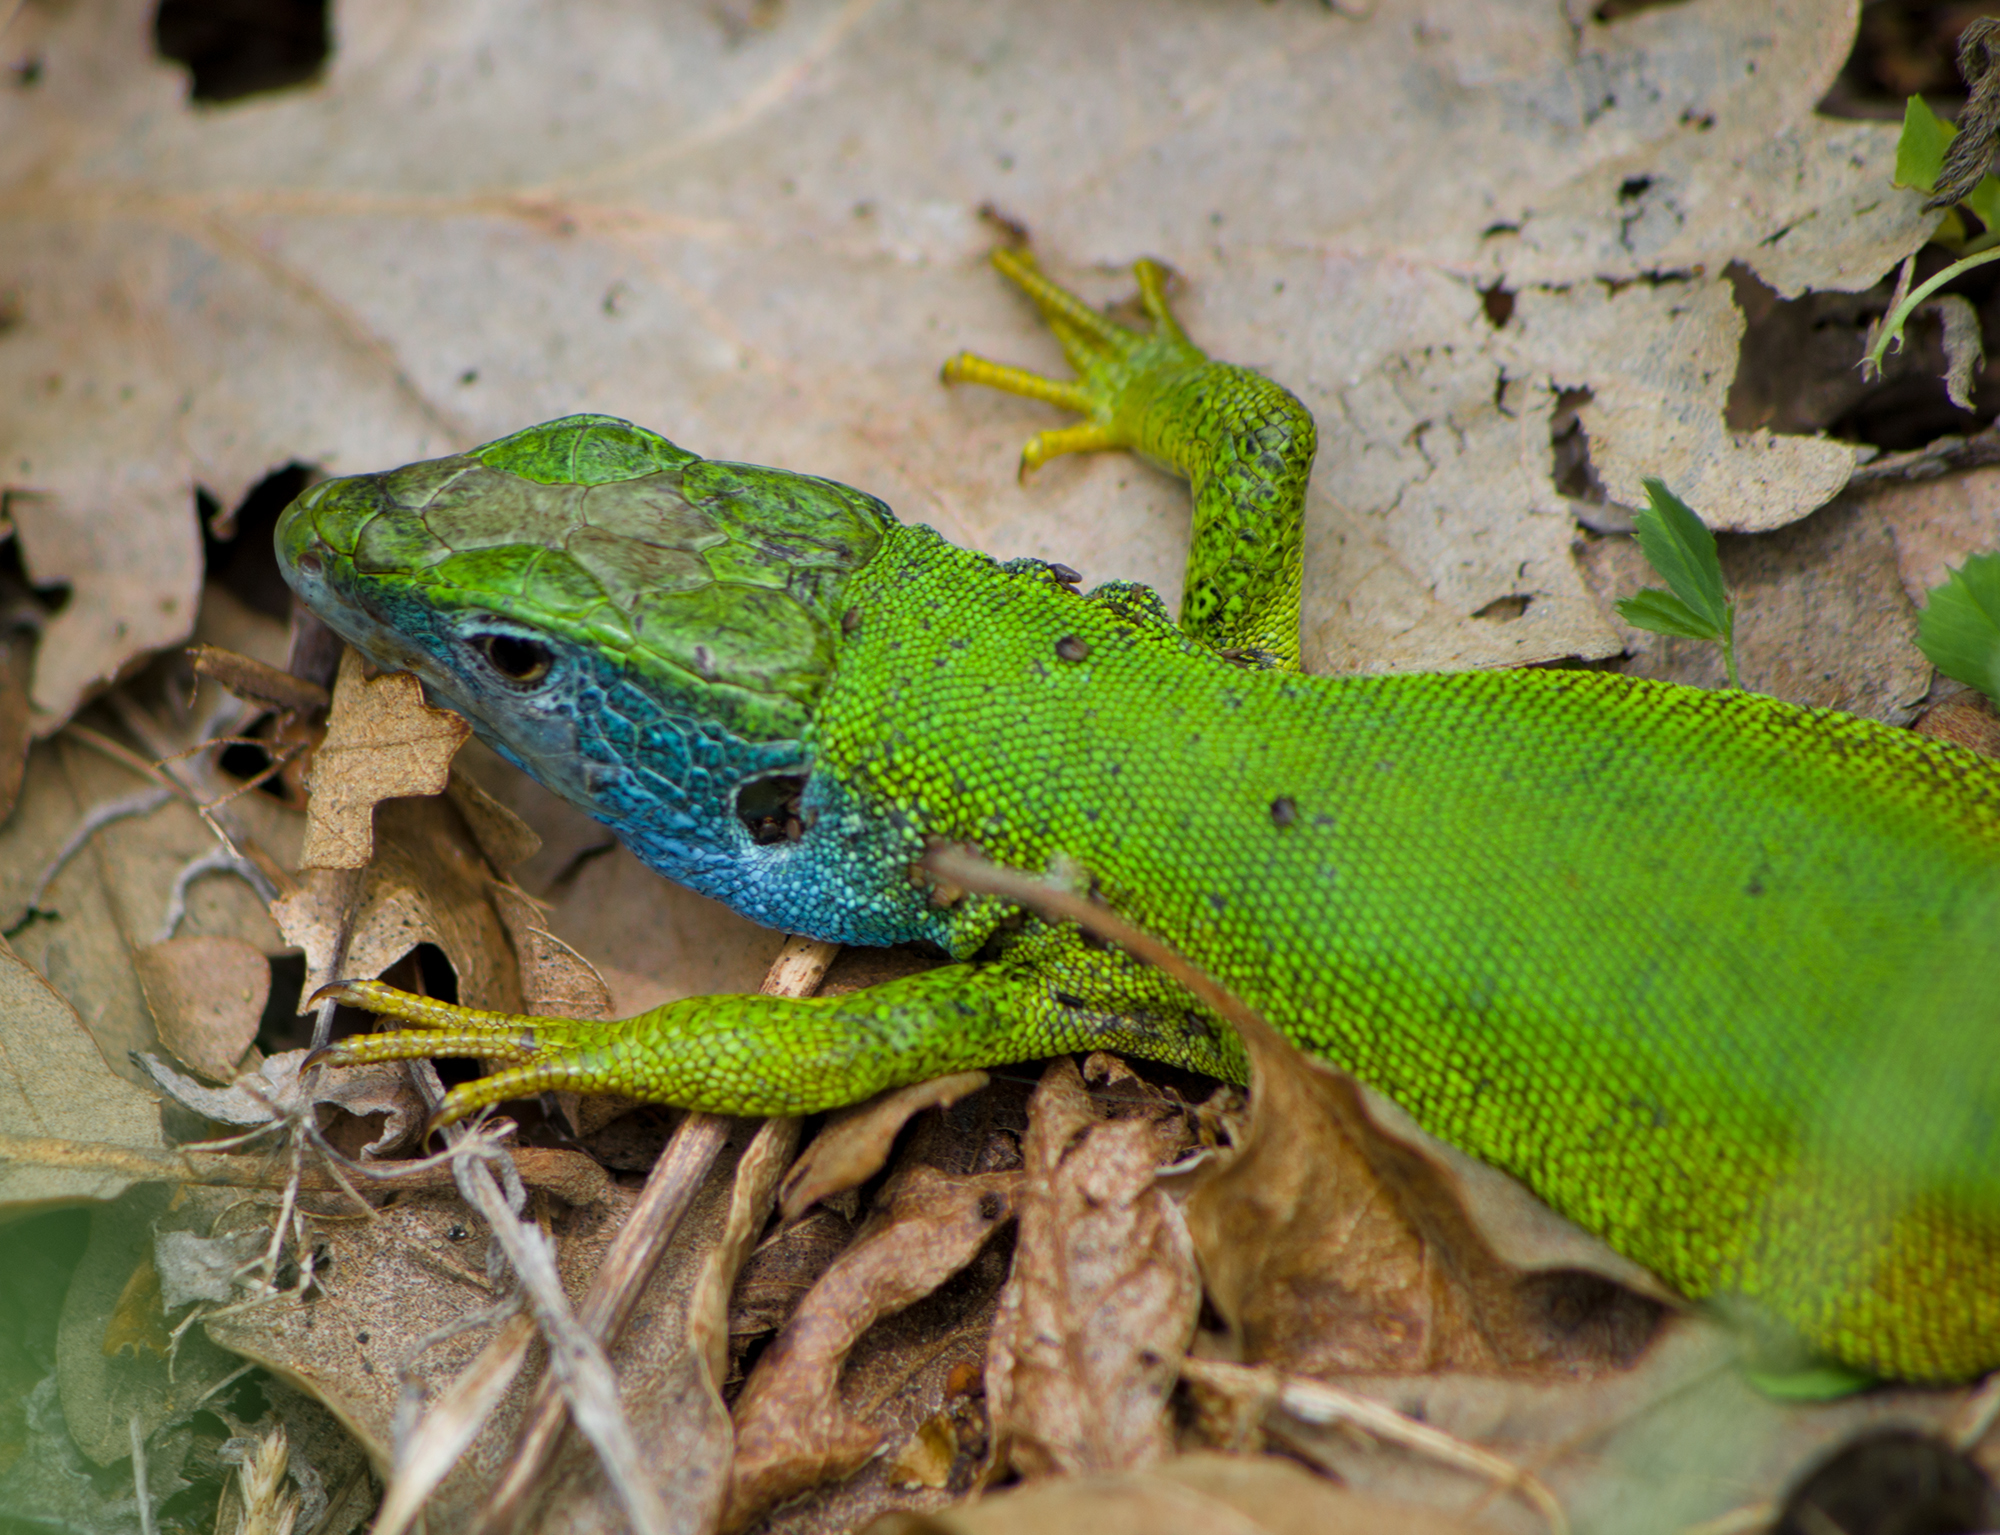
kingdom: Animalia
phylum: Chordata
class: Squamata
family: Lacertidae
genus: Lacerta
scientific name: Lacerta viridis
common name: European green lizard
